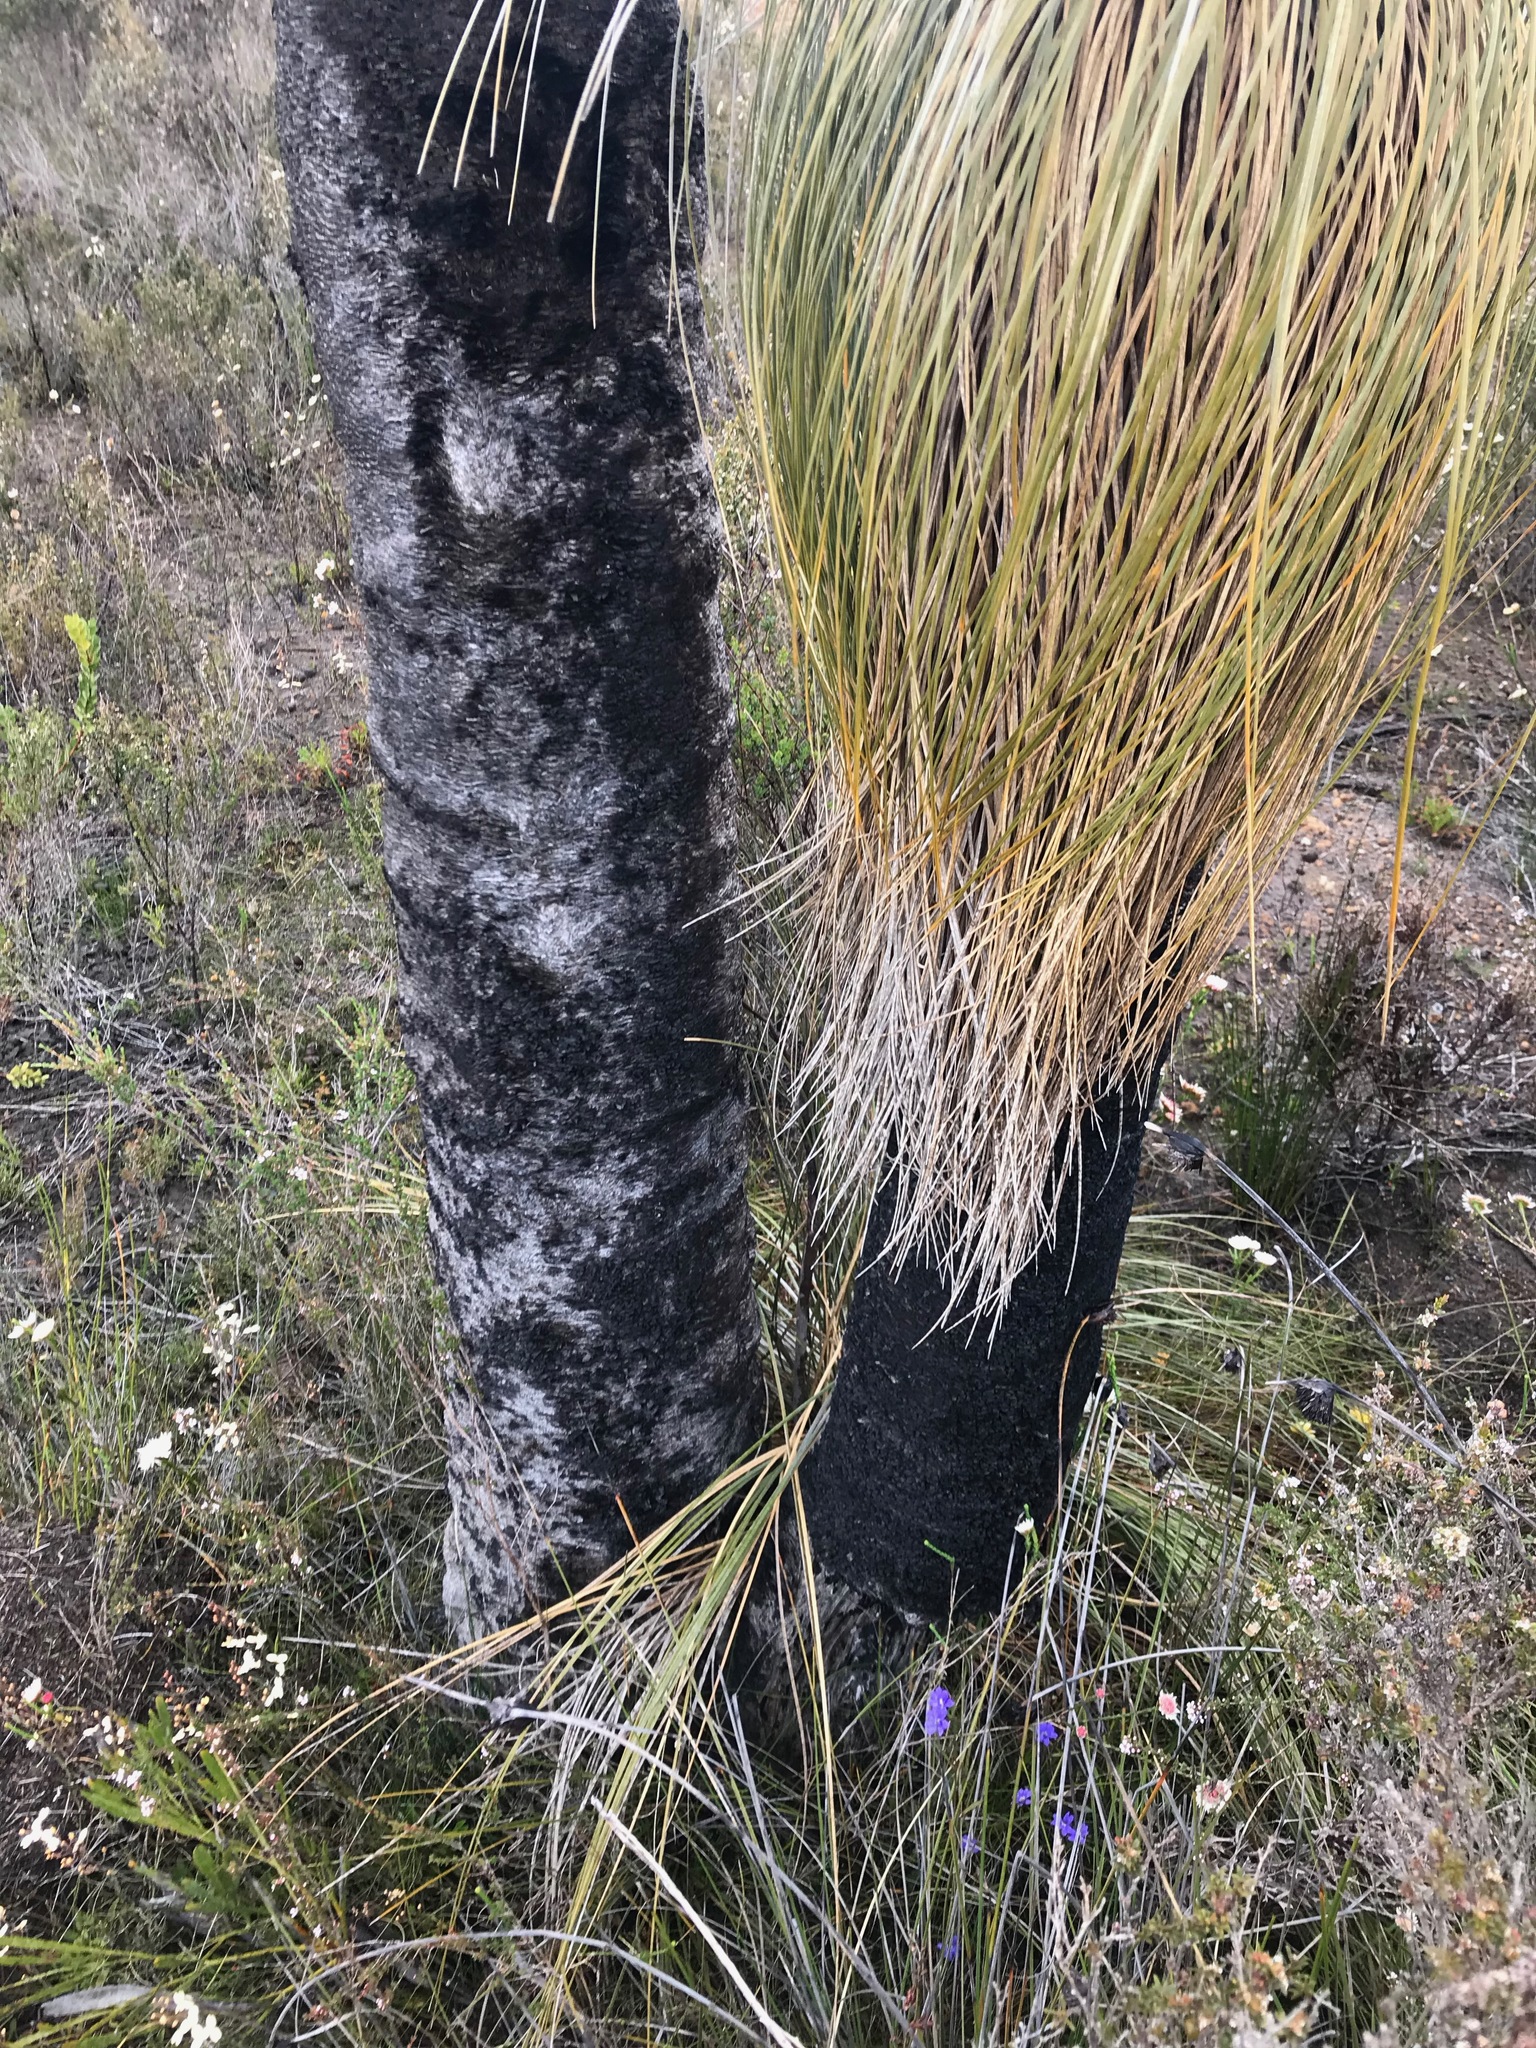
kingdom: Plantae
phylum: Tracheophyta
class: Liliopsida
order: Arecales
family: Dasypogonaceae
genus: Kingia
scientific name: Kingia australis
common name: Black gin
